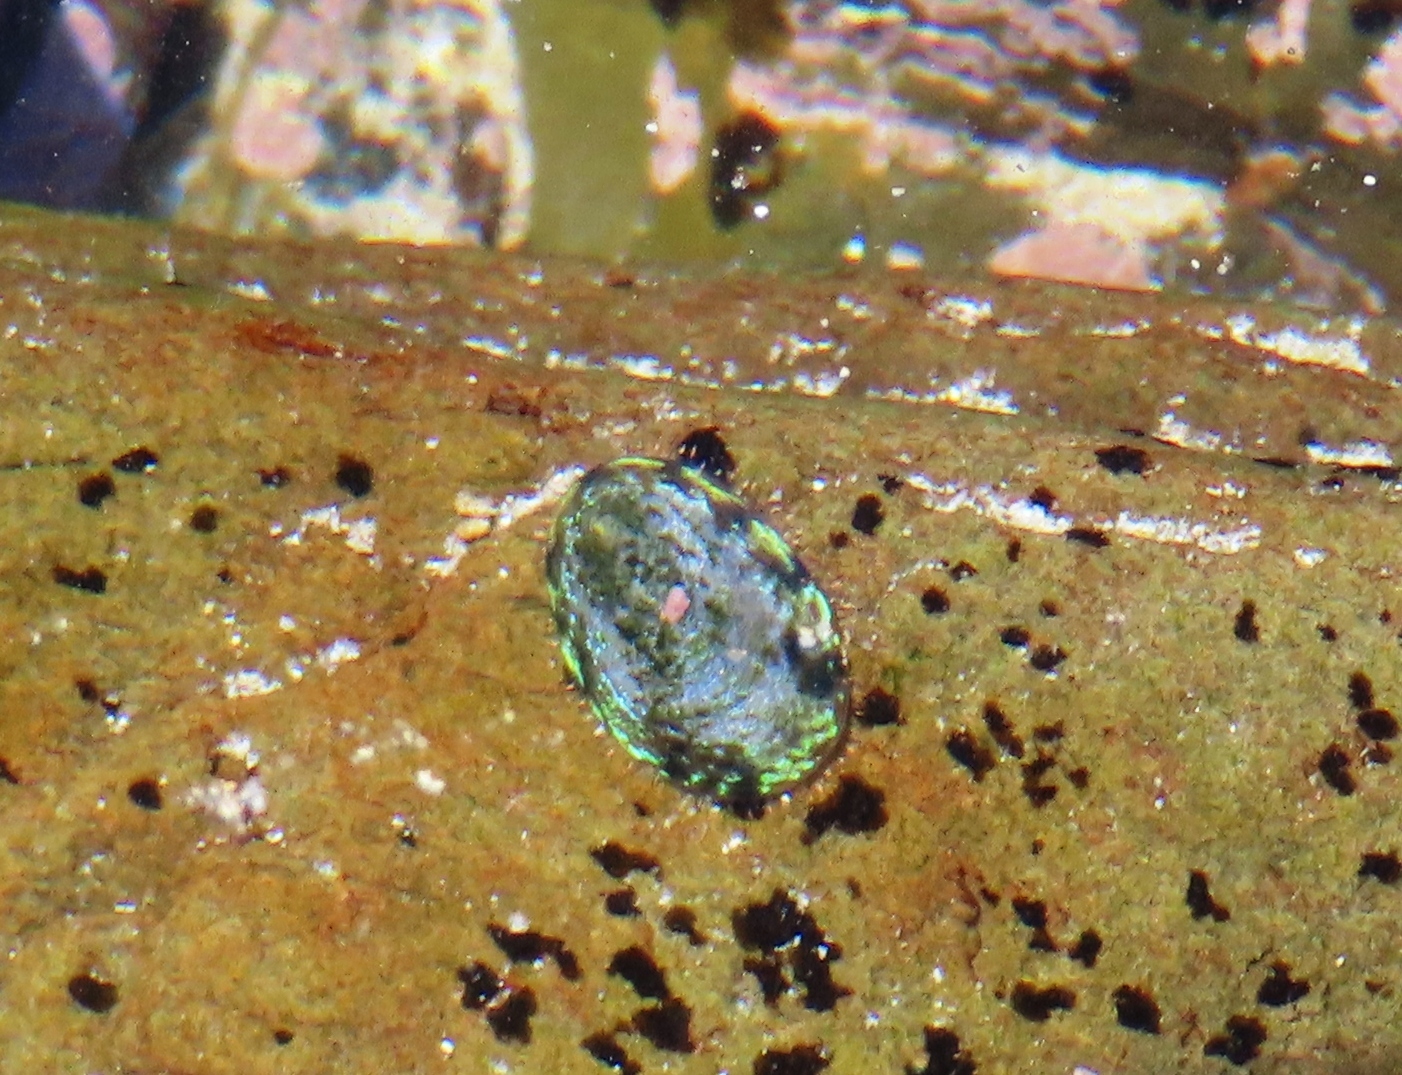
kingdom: Animalia
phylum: Mollusca
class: Gastropoda
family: Patellidae
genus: Helcion
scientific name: Helcion pruinosus
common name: Rayed limpet
